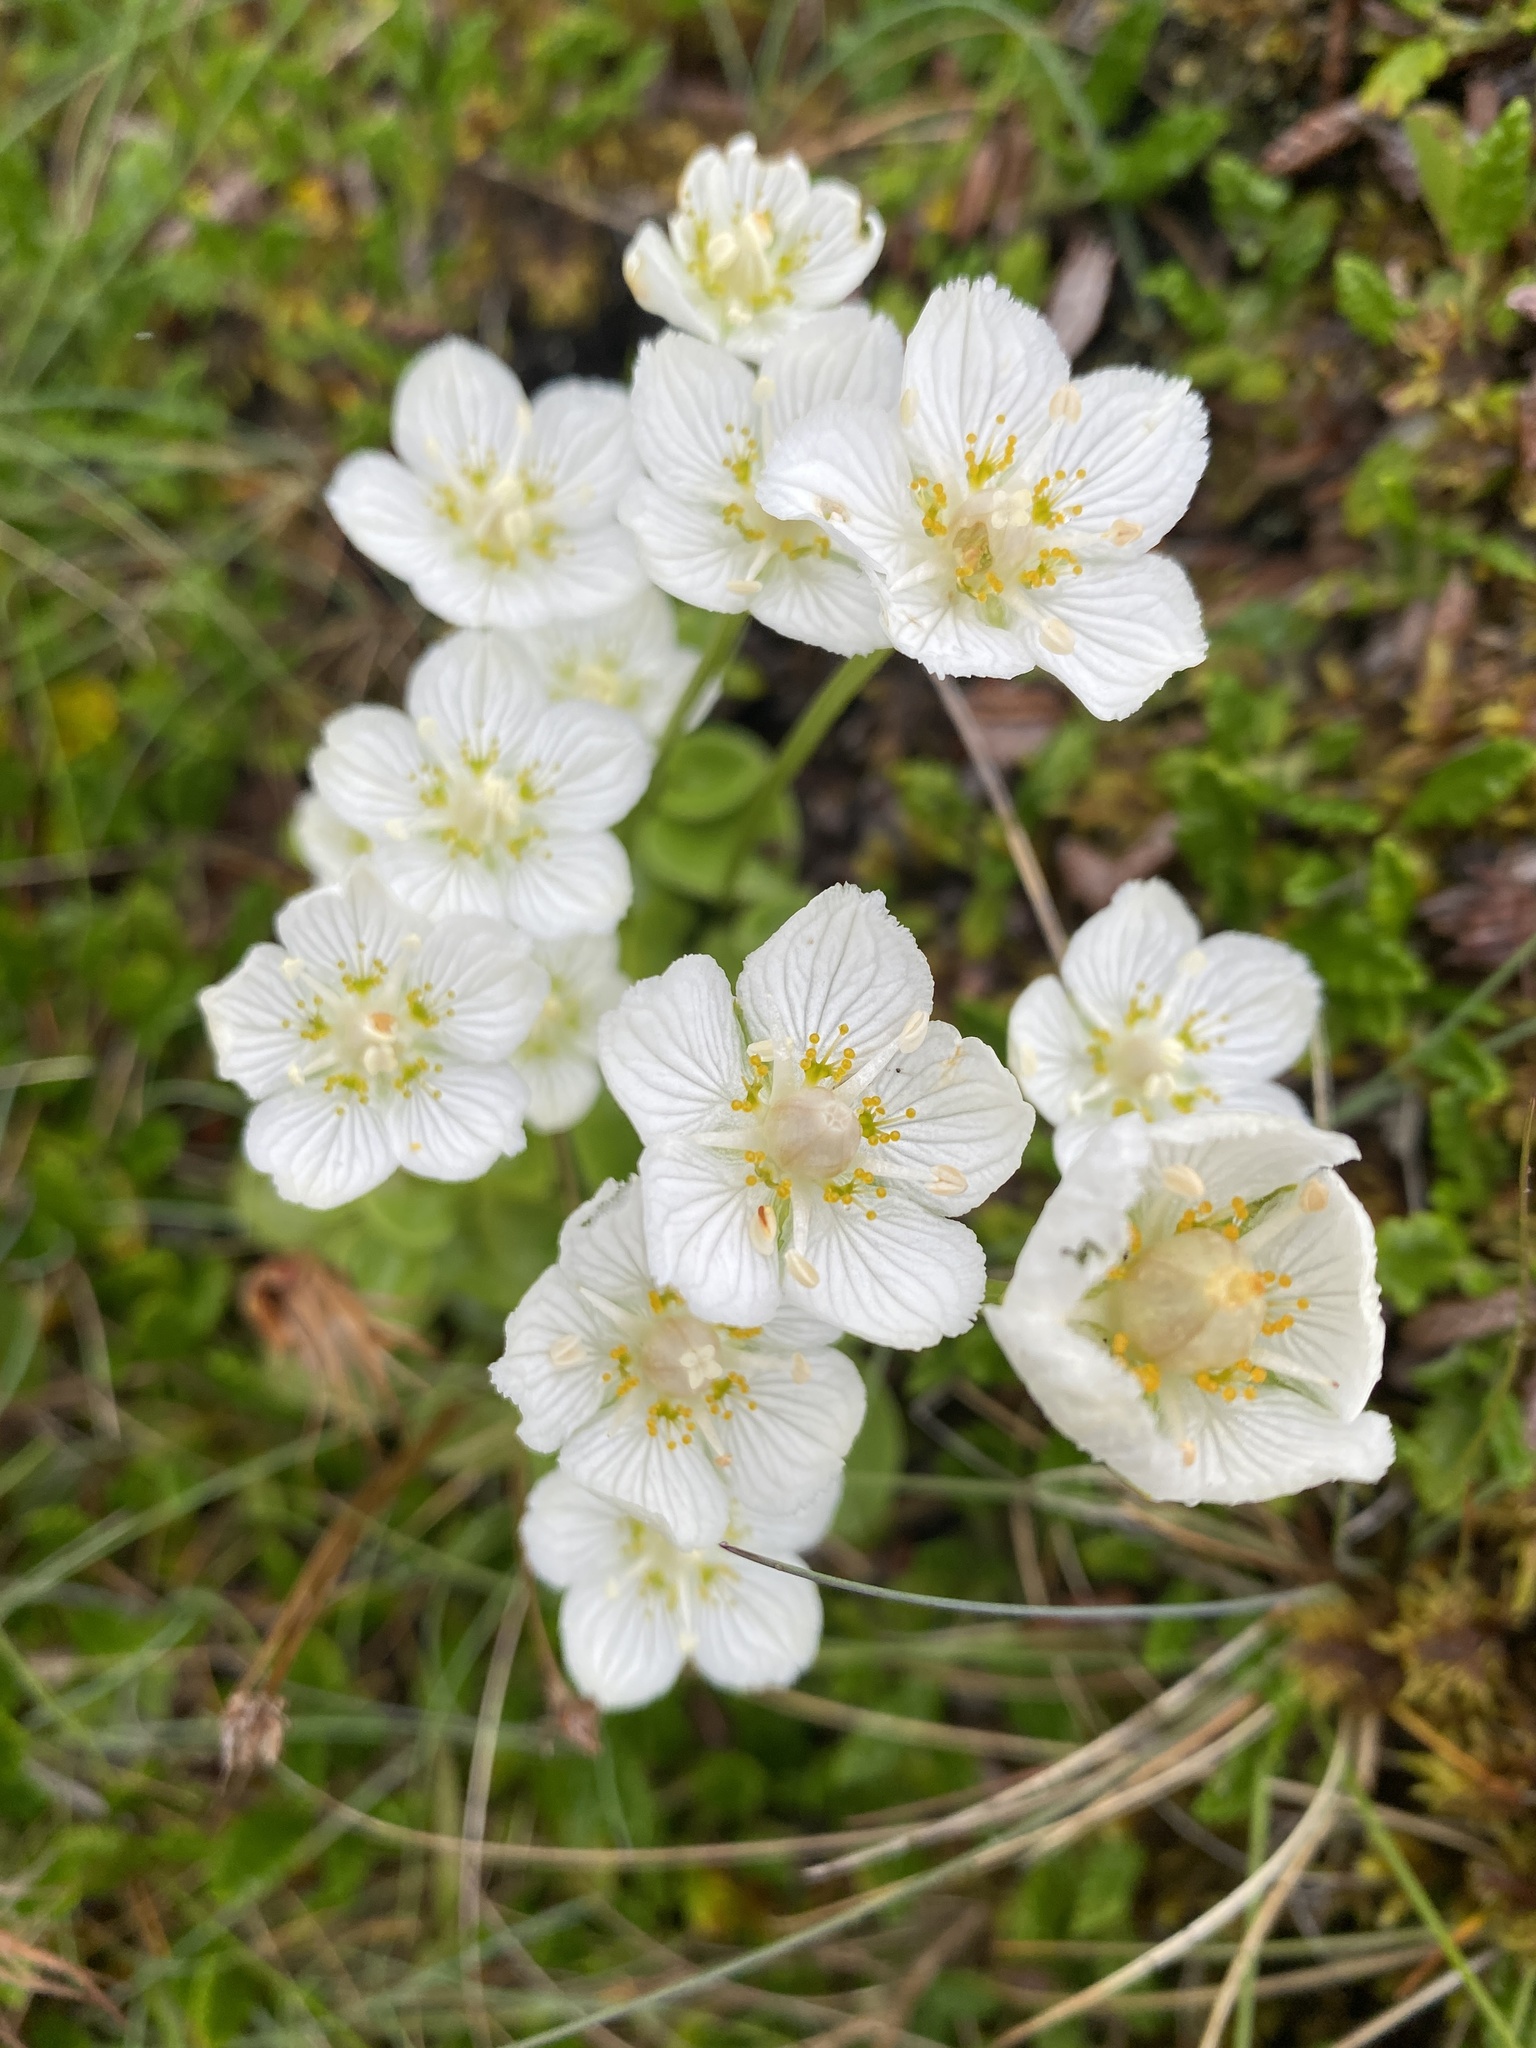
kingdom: Plantae
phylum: Tracheophyta
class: Magnoliopsida
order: Celastrales
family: Parnassiaceae
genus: Parnassia
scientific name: Parnassia palustris
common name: Grass-of-parnassus
